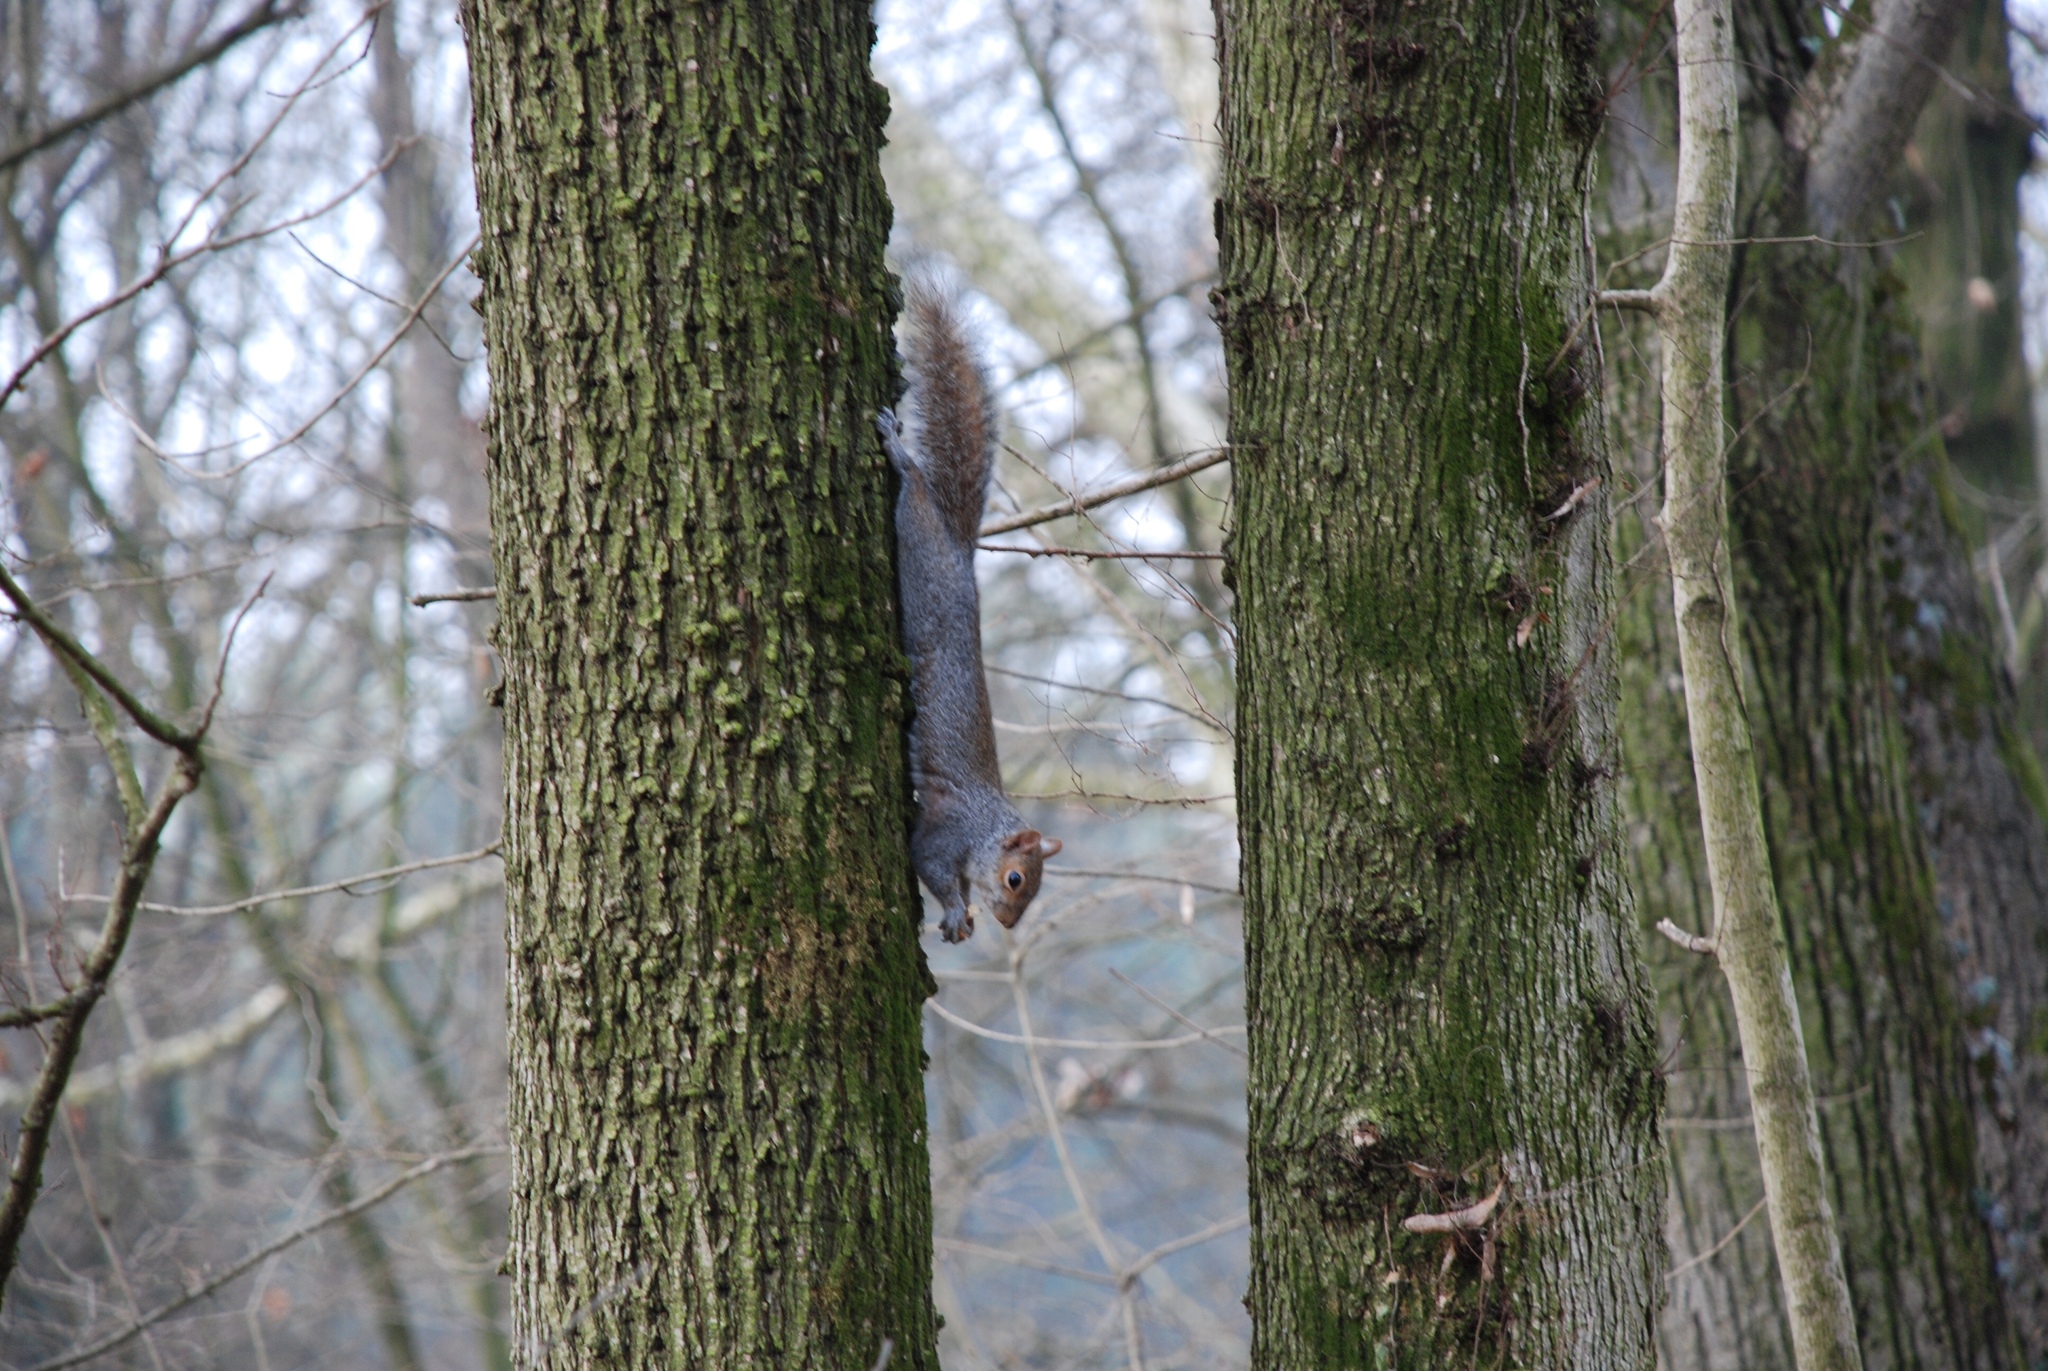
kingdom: Animalia
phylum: Chordata
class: Mammalia
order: Rodentia
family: Sciuridae
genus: Sciurus
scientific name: Sciurus carolinensis
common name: Eastern gray squirrel
